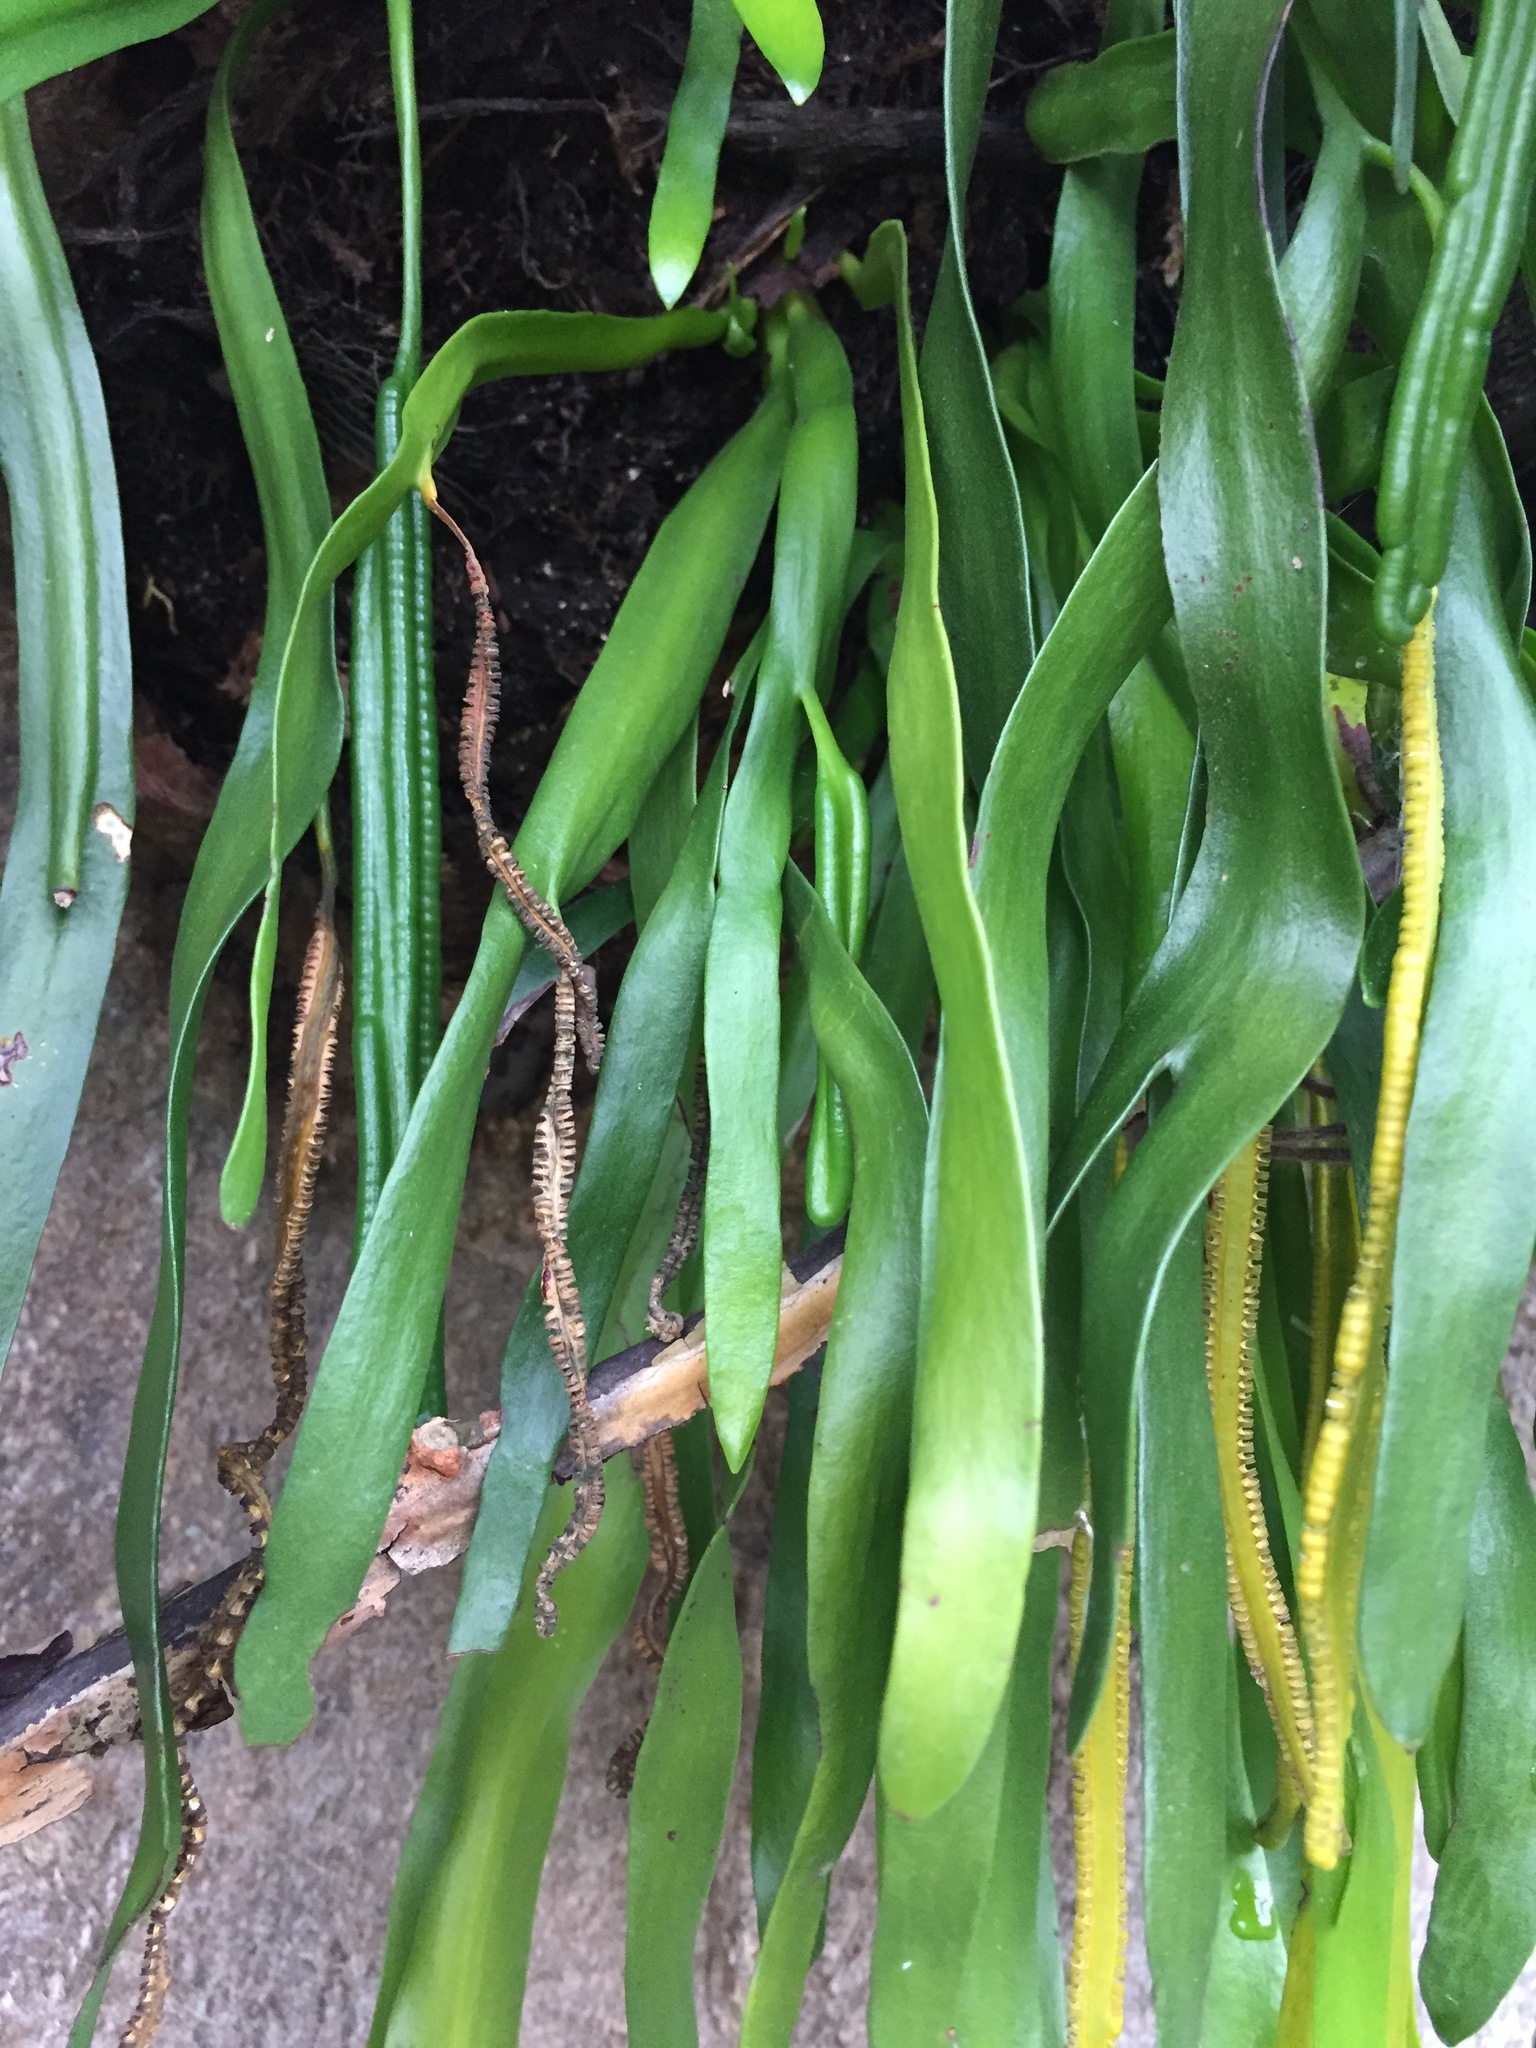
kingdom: Plantae
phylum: Tracheophyta
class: Polypodiopsida
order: Ophioglossales
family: Ophioglossaceae
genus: Ophioderma
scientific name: Ophioderma pendulum
